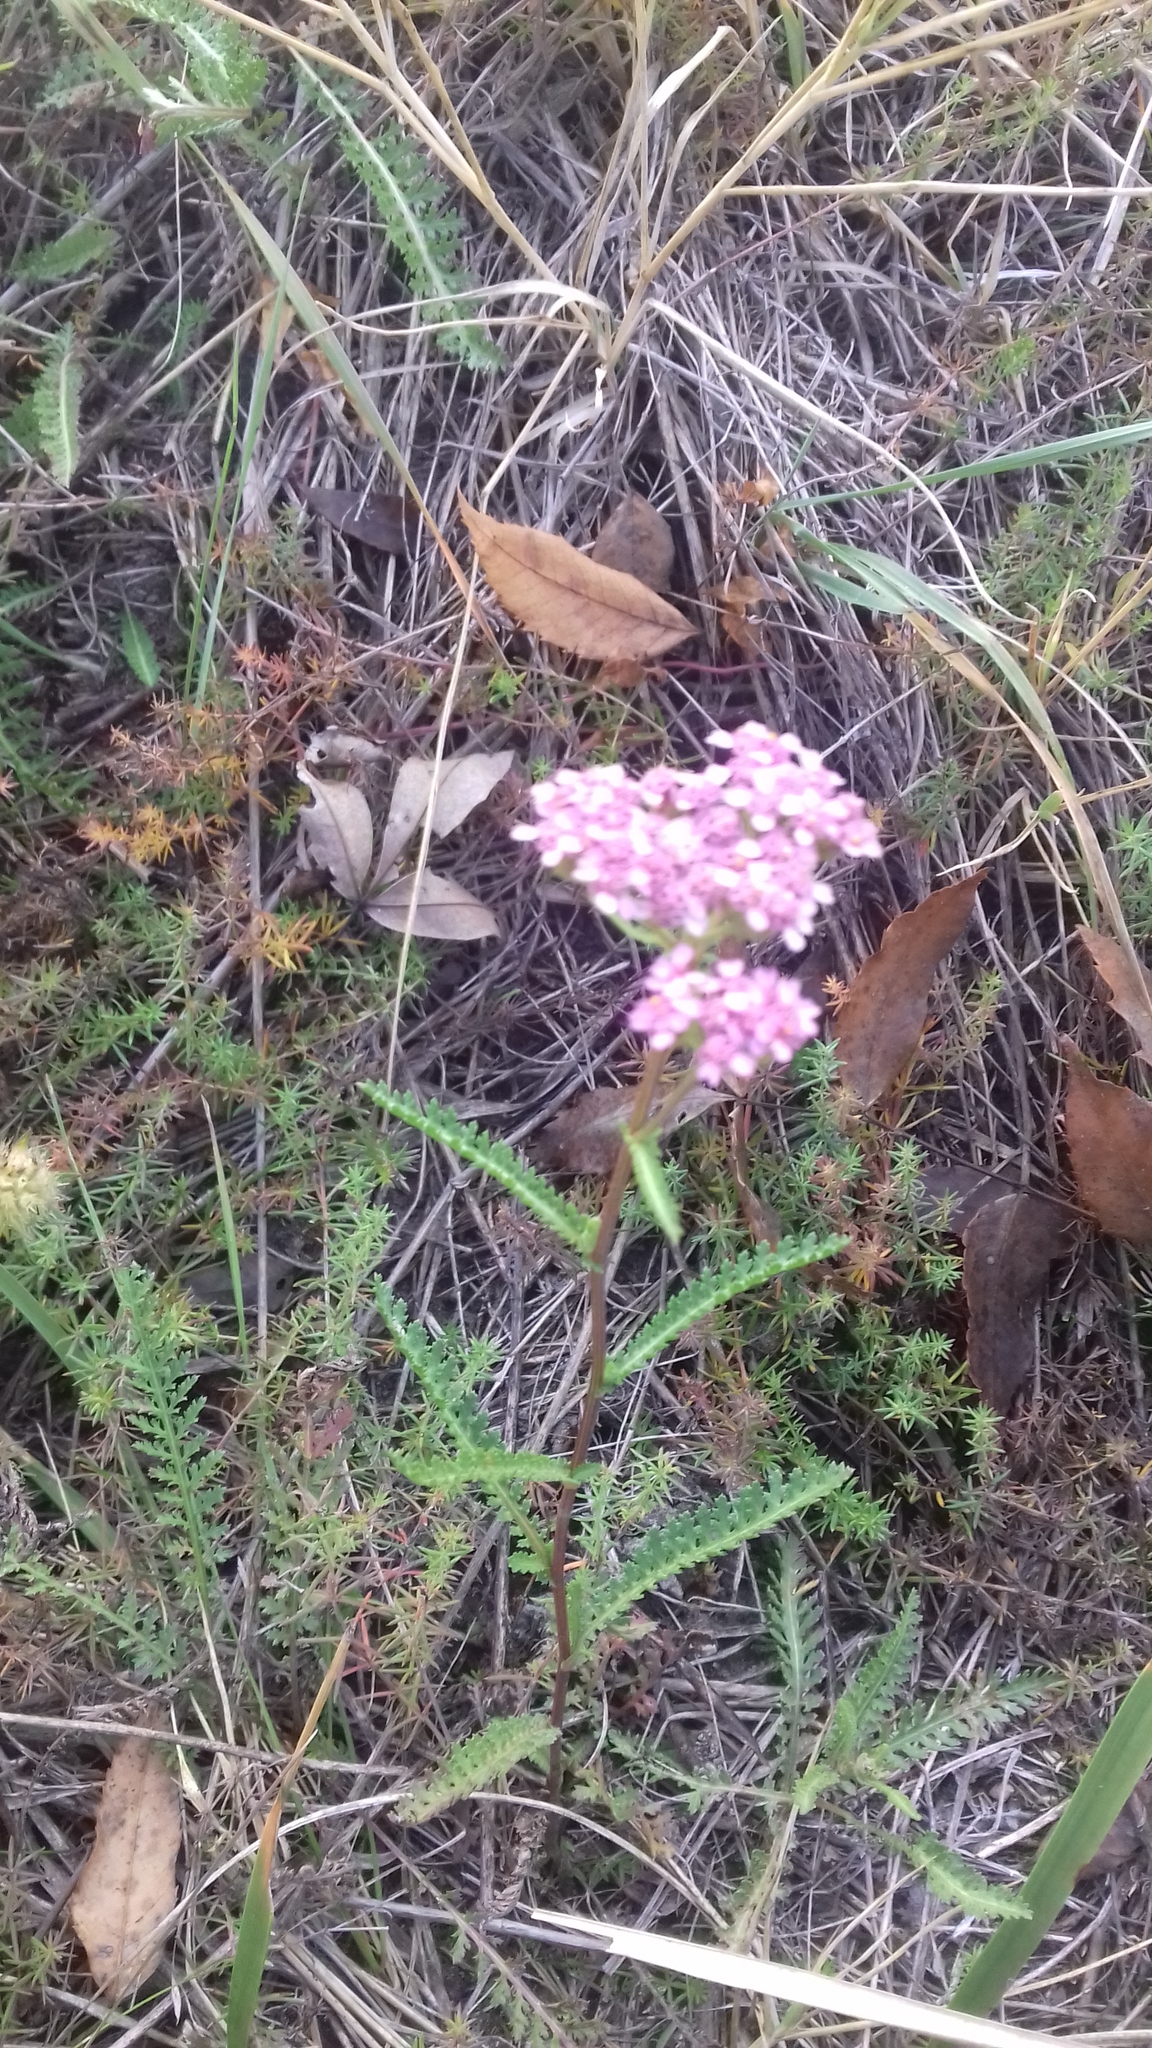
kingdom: Plantae
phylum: Tracheophyta
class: Magnoliopsida
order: Asterales
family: Asteraceae
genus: Achillea
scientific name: Achillea millefolium
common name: Yarrow
